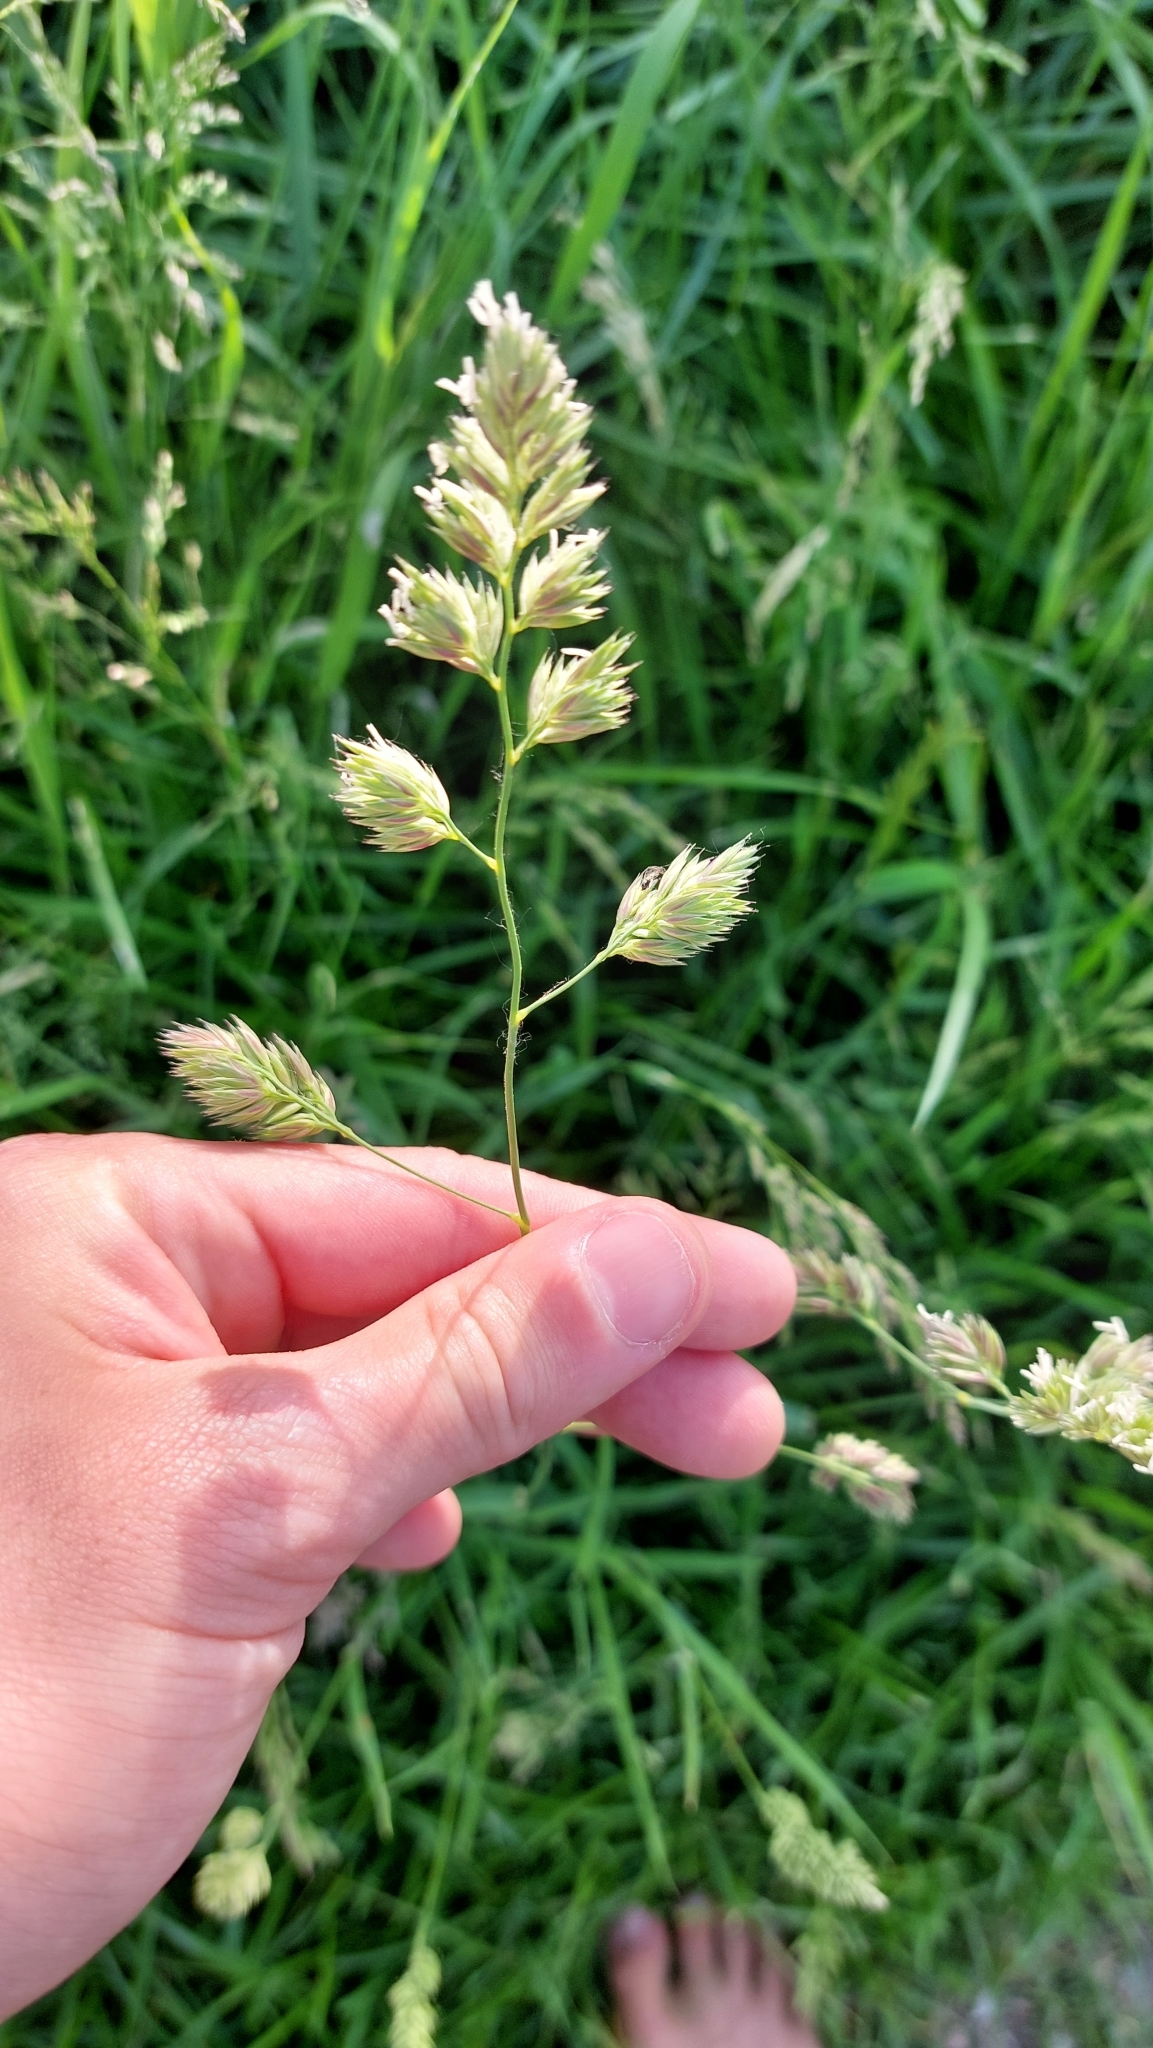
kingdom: Plantae
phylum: Tracheophyta
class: Liliopsida
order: Poales
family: Poaceae
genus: Dactylis
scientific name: Dactylis glomerata
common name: Orchardgrass
